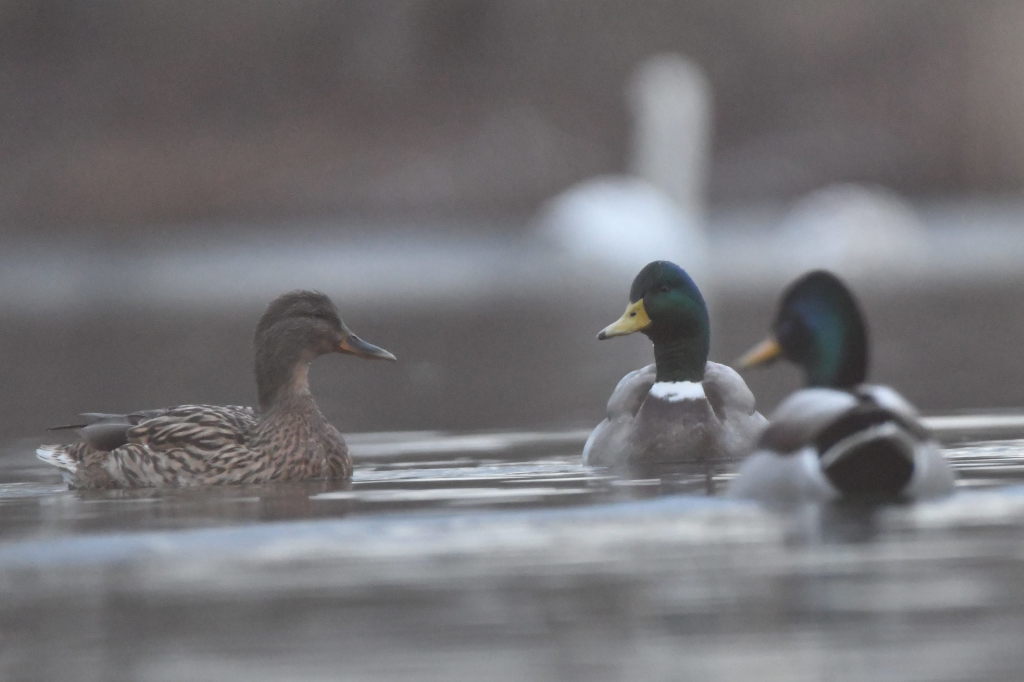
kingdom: Animalia
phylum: Chordata
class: Aves
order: Anseriformes
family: Anatidae
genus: Anas
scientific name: Anas platyrhynchos
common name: Mallard
